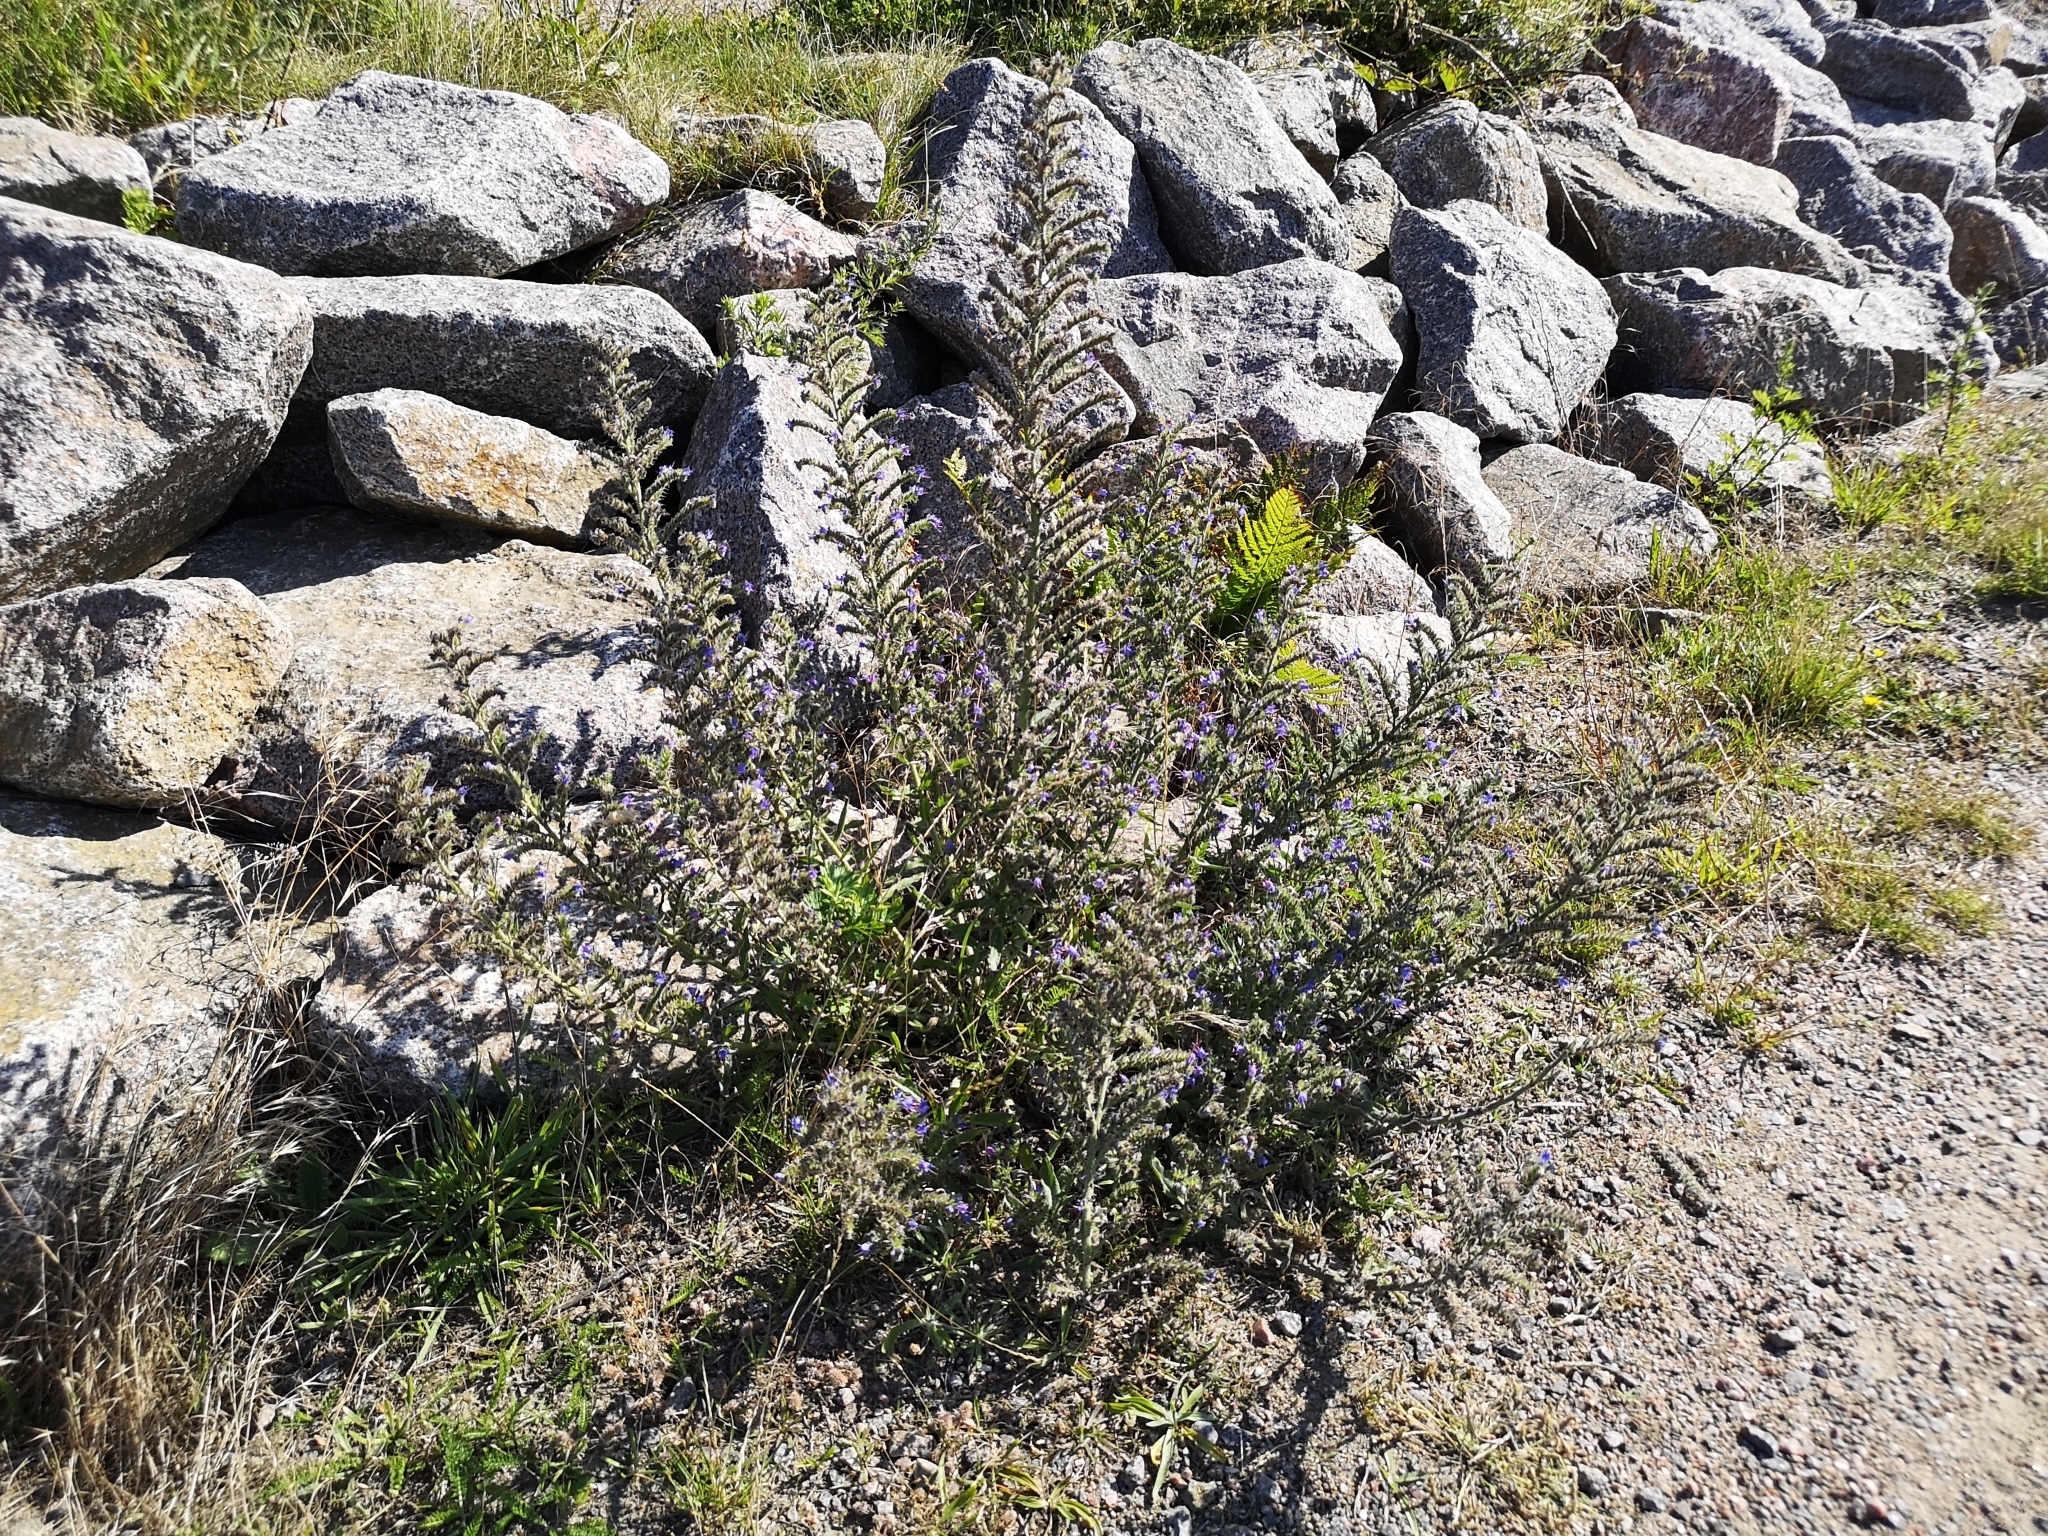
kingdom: Plantae
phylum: Tracheophyta
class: Magnoliopsida
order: Boraginales
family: Boraginaceae
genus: Echium
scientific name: Echium vulgare
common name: Common viper's bugloss
